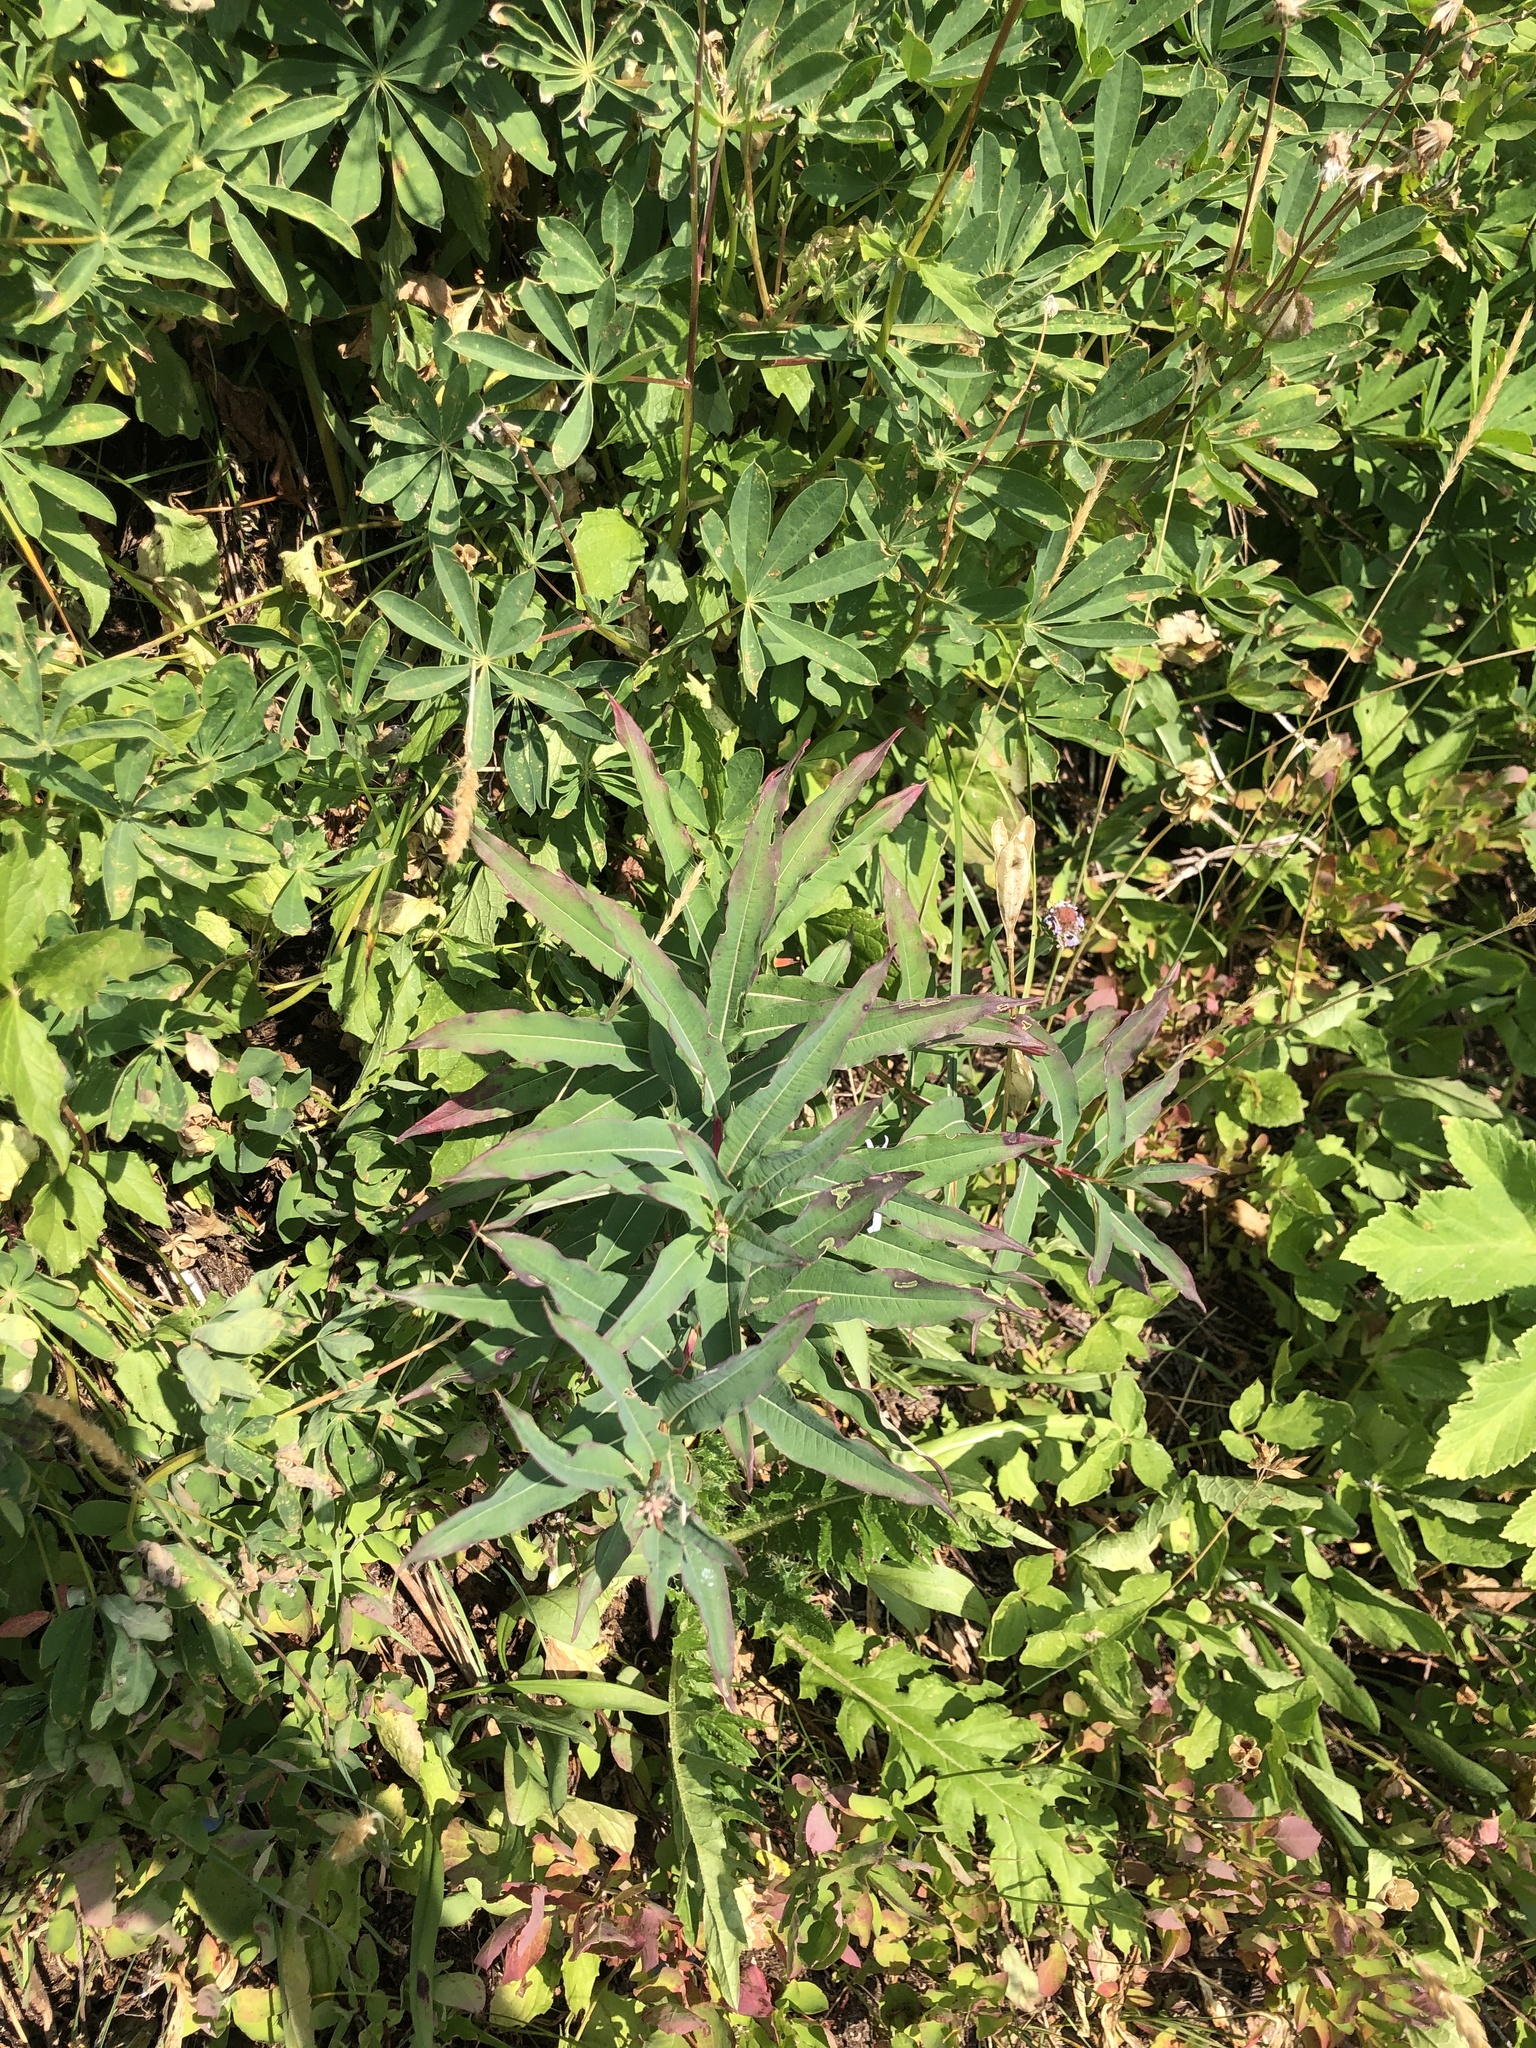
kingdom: Plantae
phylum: Tracheophyta
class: Magnoliopsida
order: Myrtales
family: Onagraceae
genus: Chamaenerion
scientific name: Chamaenerion angustifolium
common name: Fireweed
